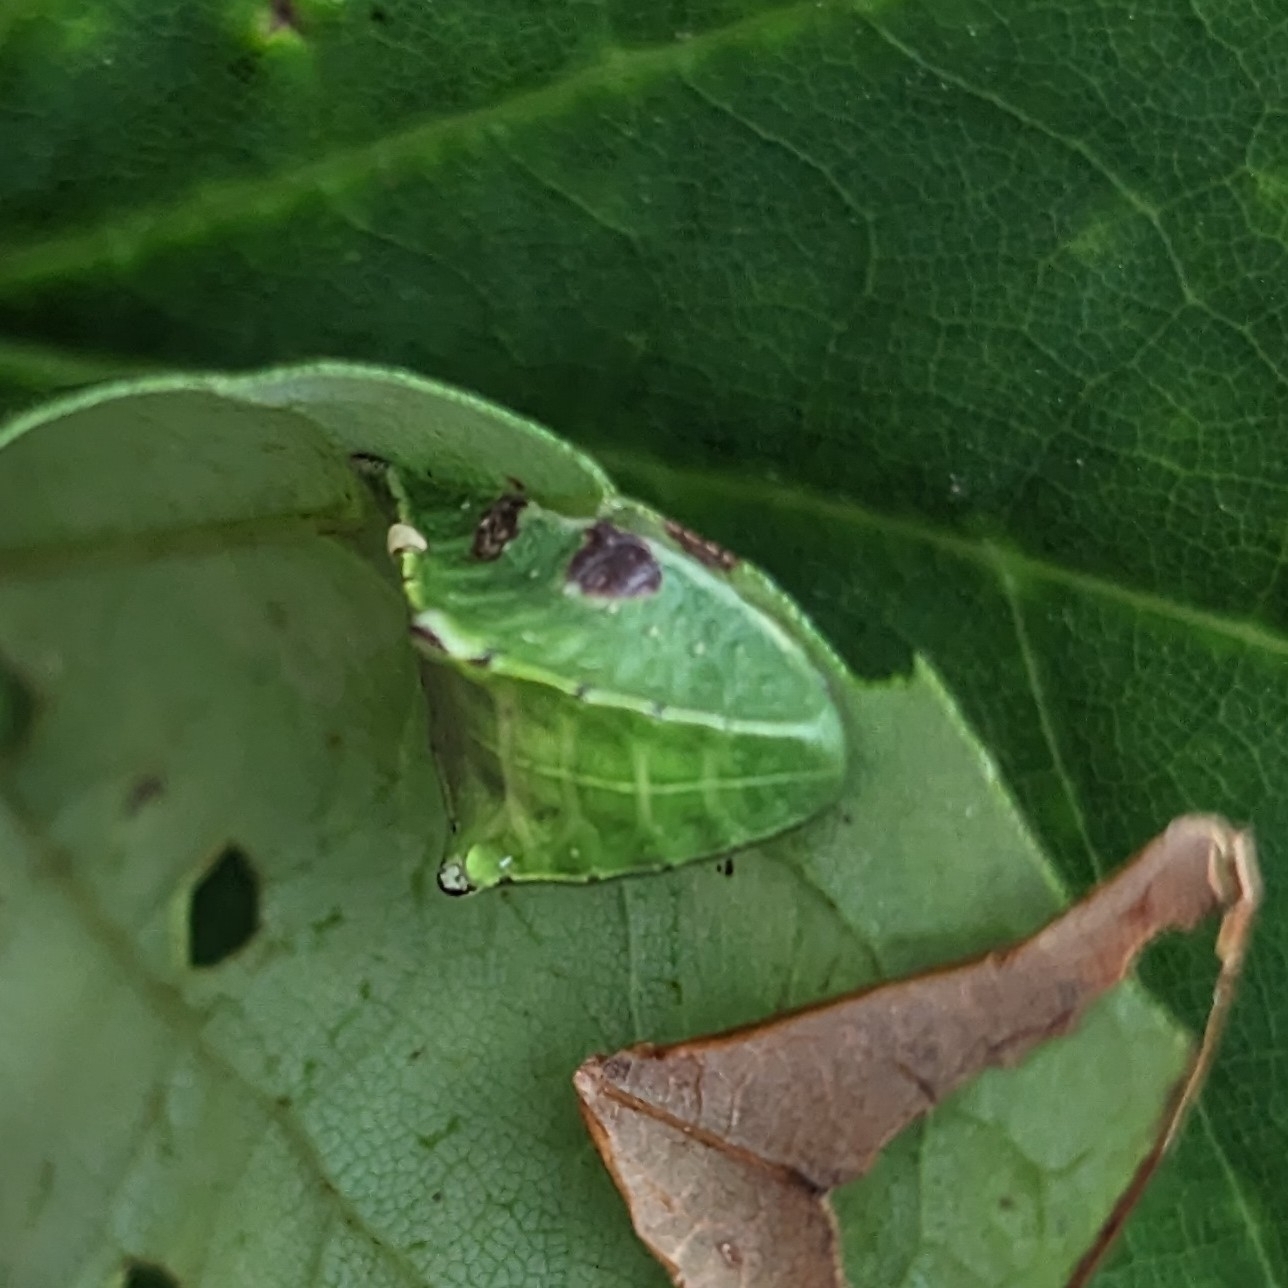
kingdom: Animalia
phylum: Arthropoda
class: Insecta
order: Lepidoptera
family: Limacodidae
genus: Prolimacodes
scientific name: Prolimacodes badia
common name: Skiff moth
